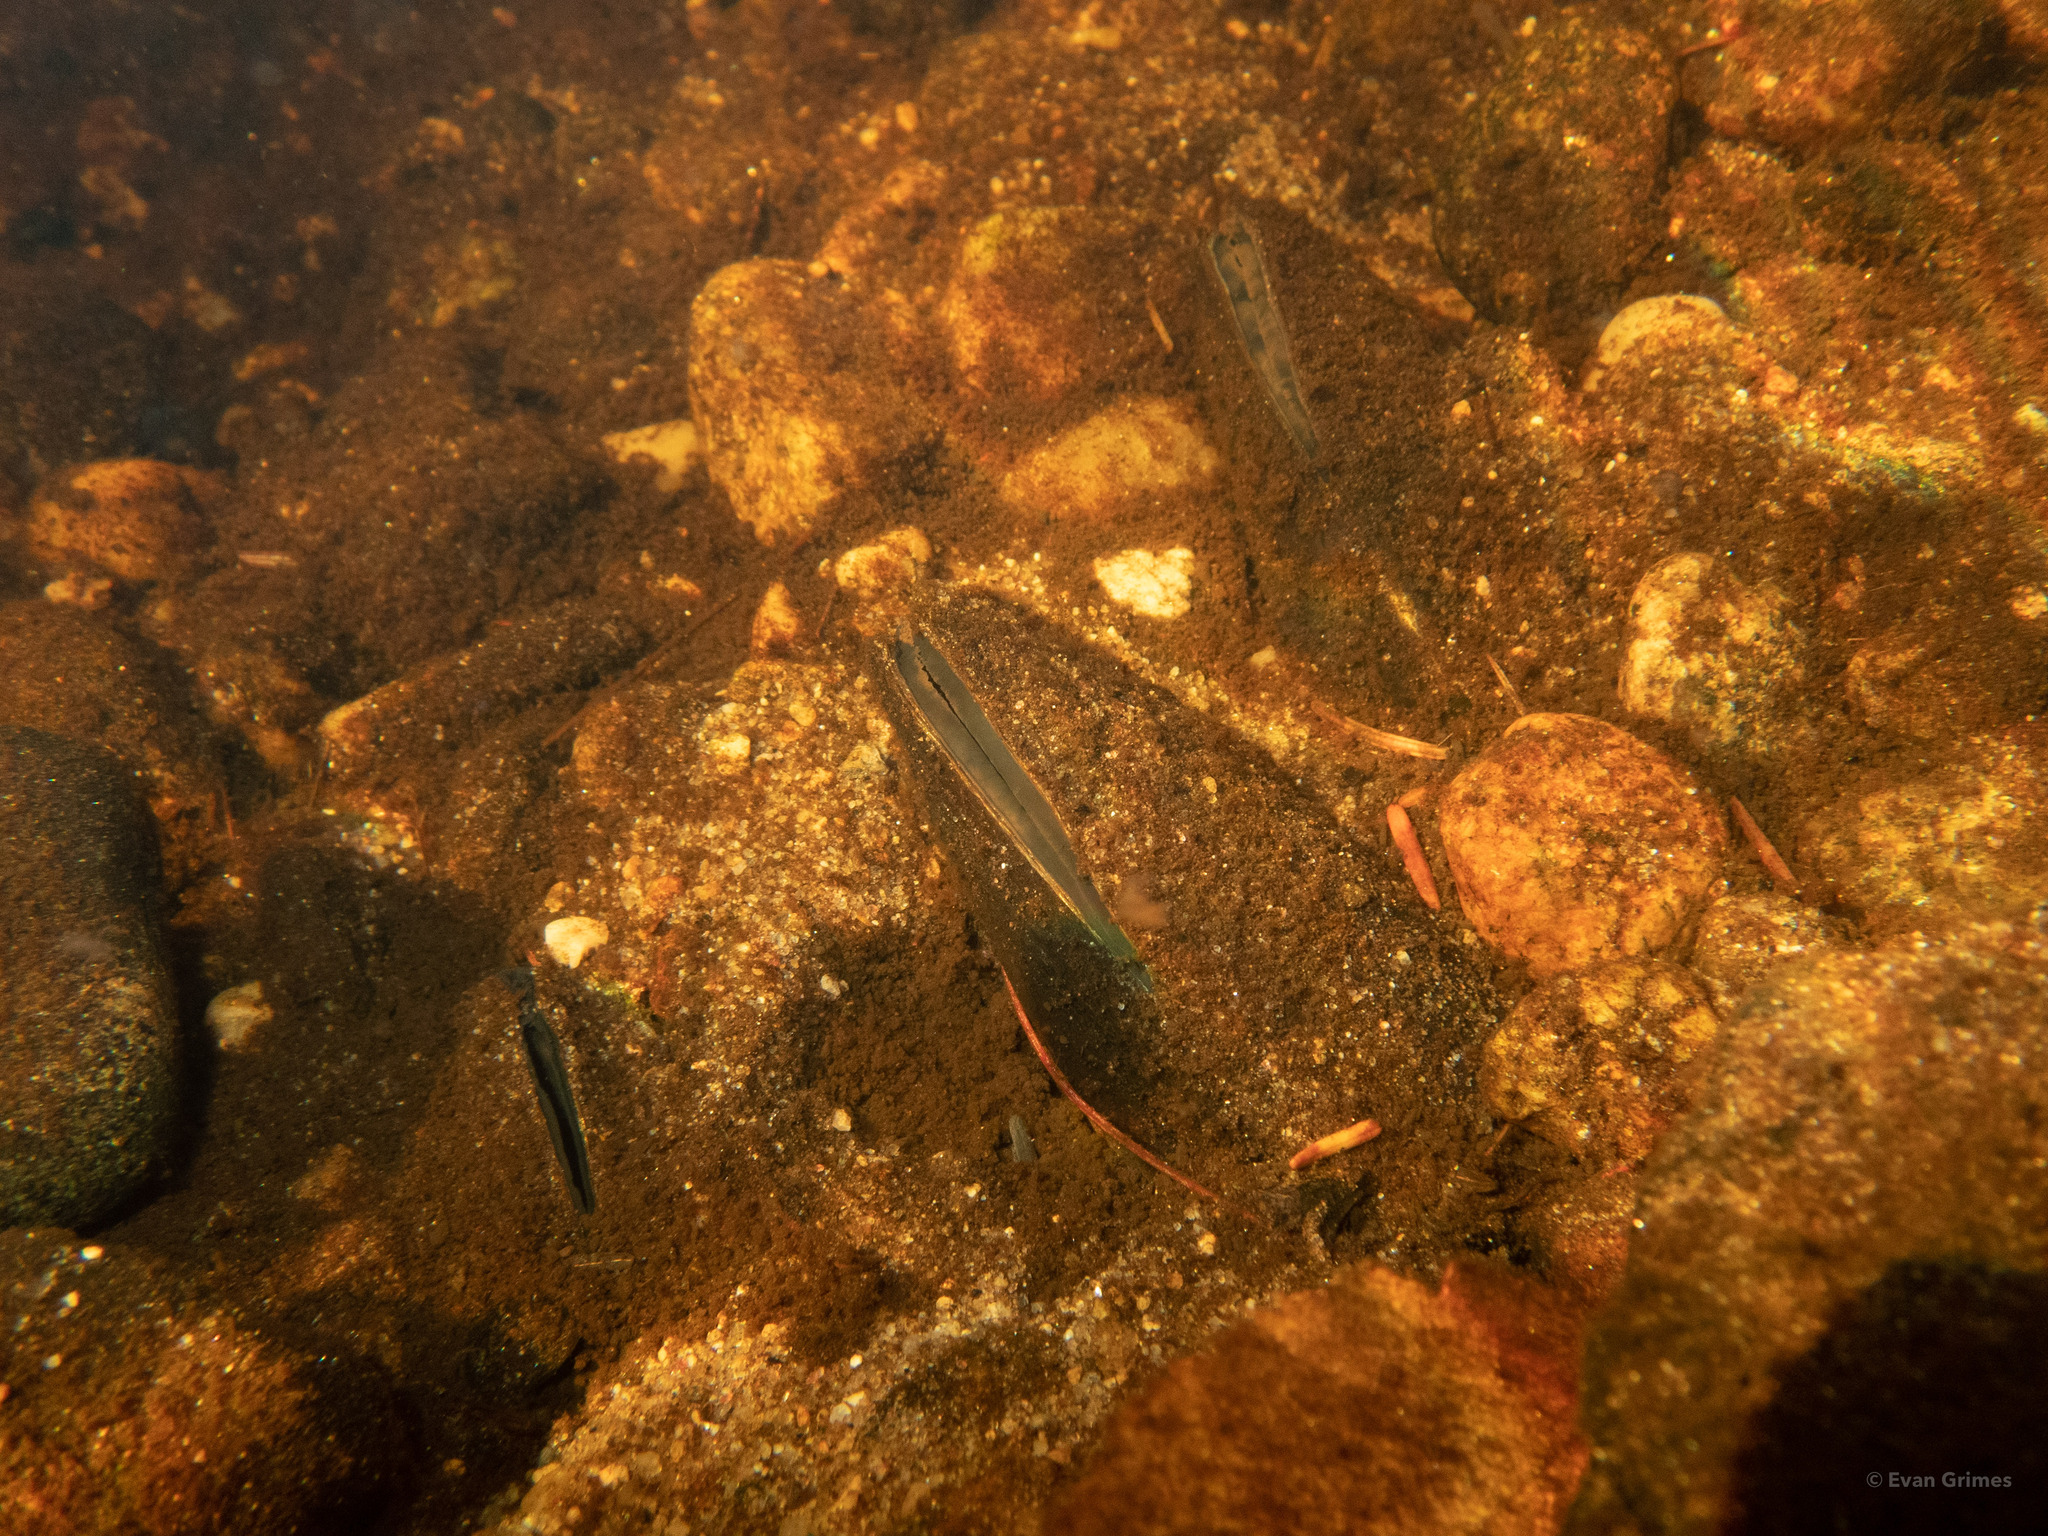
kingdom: Animalia
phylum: Mollusca
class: Bivalvia
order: Unionida
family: Margaritiferidae
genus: Margaritifera
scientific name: Margaritifera margaritifera
